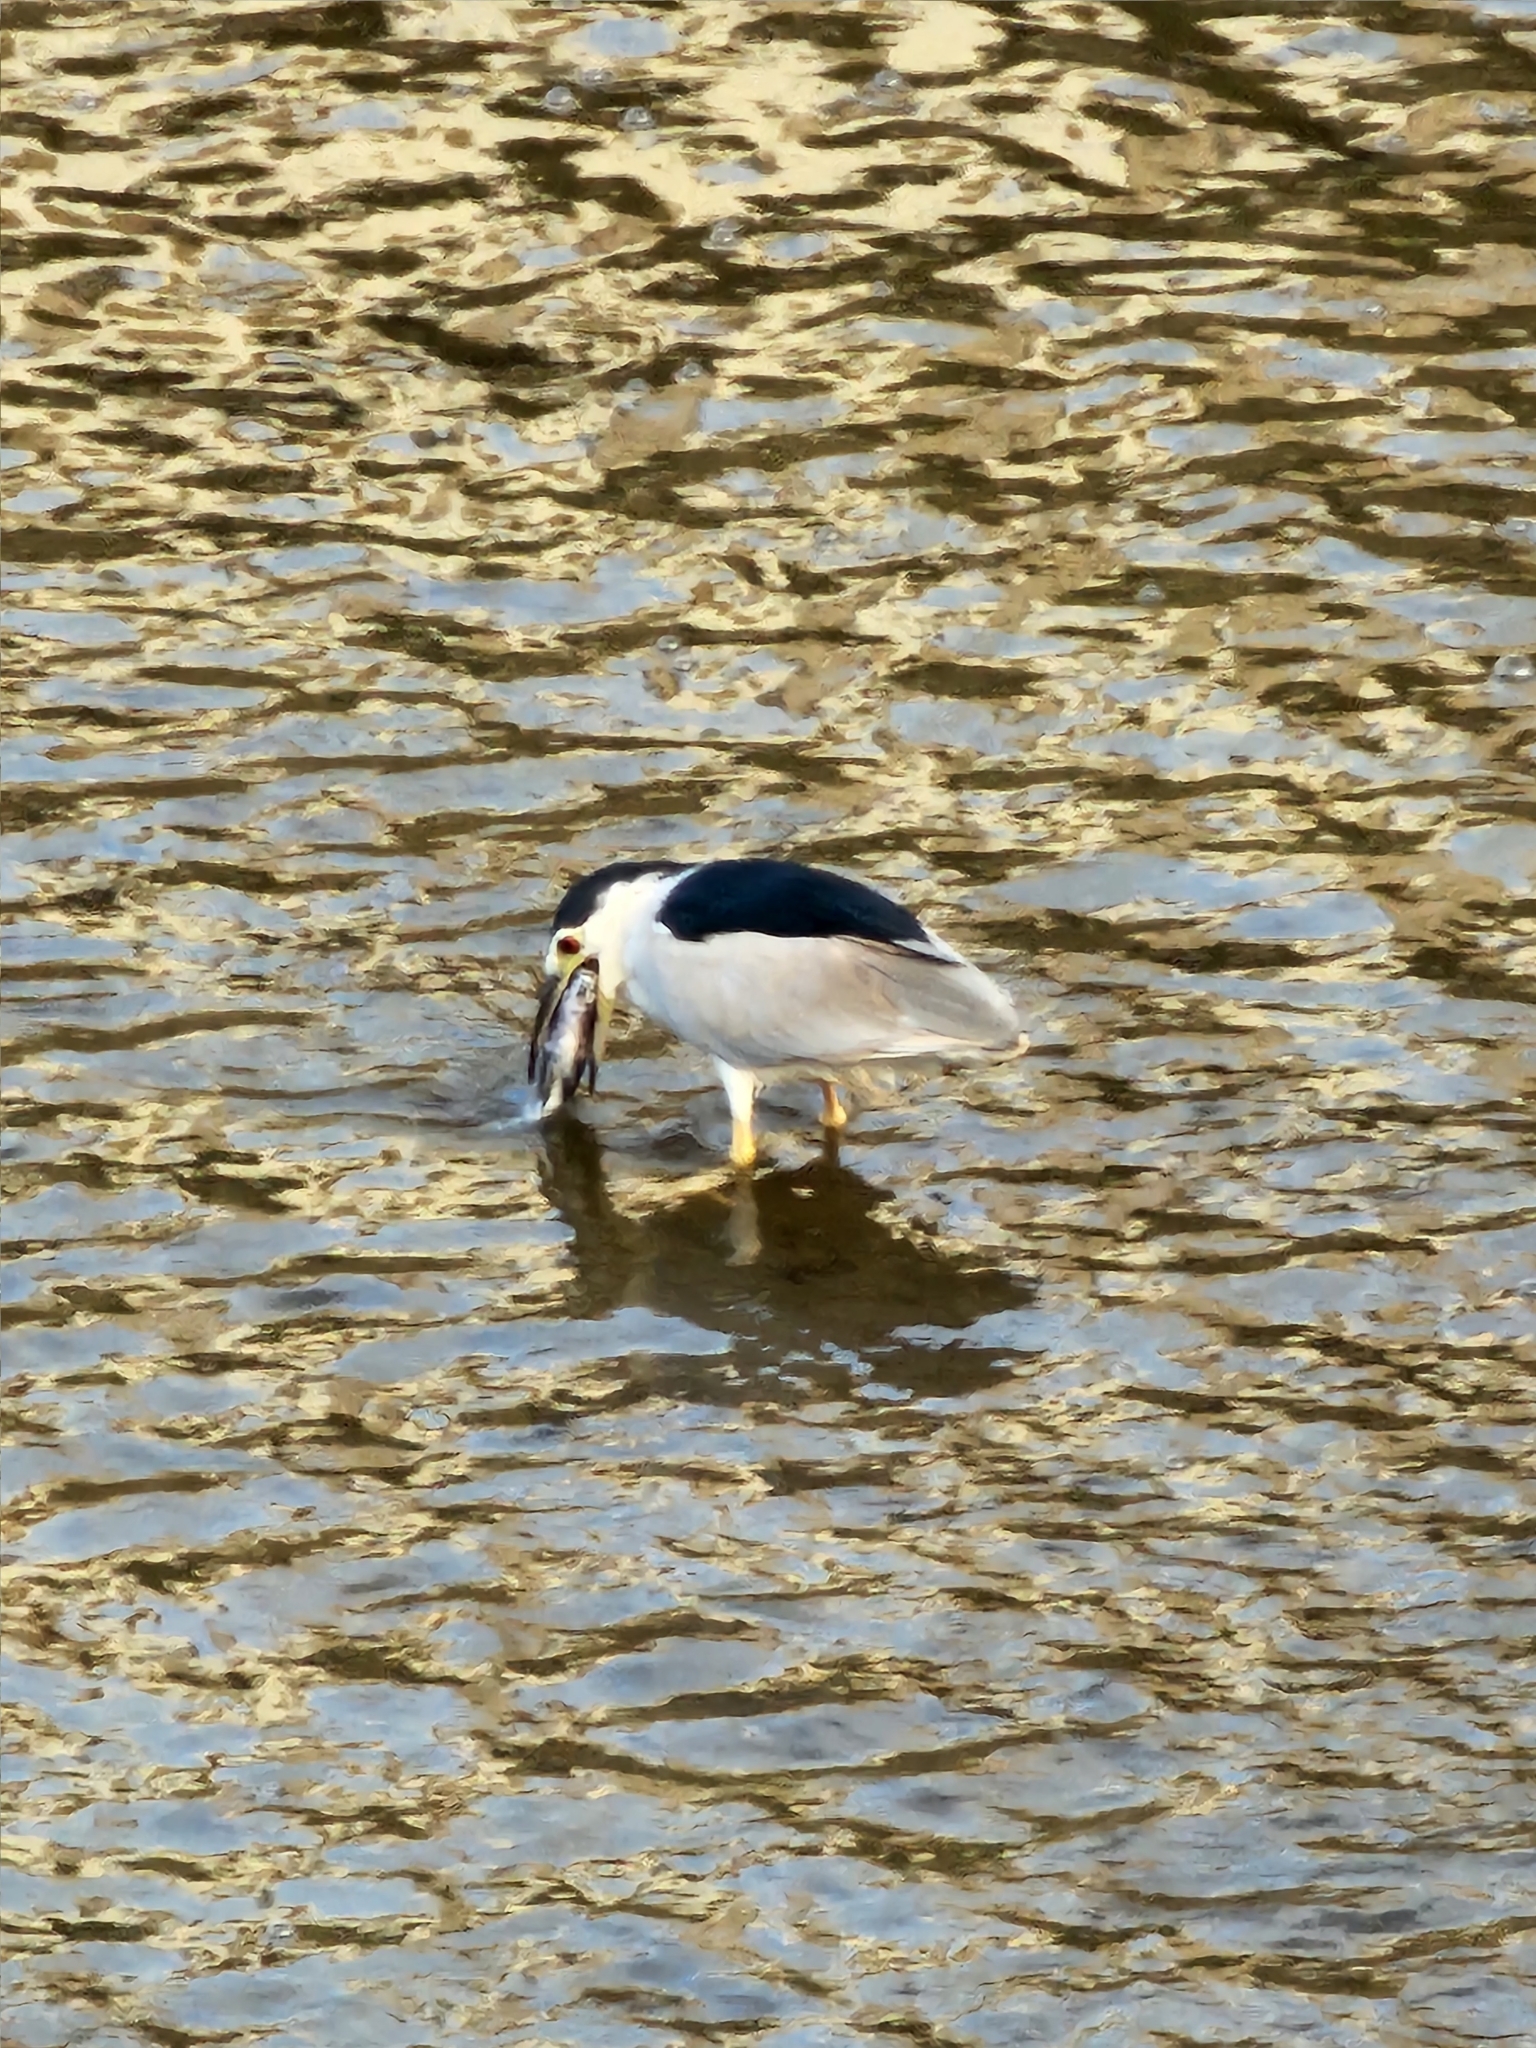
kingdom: Animalia
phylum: Chordata
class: Aves
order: Pelecaniformes
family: Ardeidae
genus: Nycticorax
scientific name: Nycticorax nycticorax
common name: Black-crowned night heron
